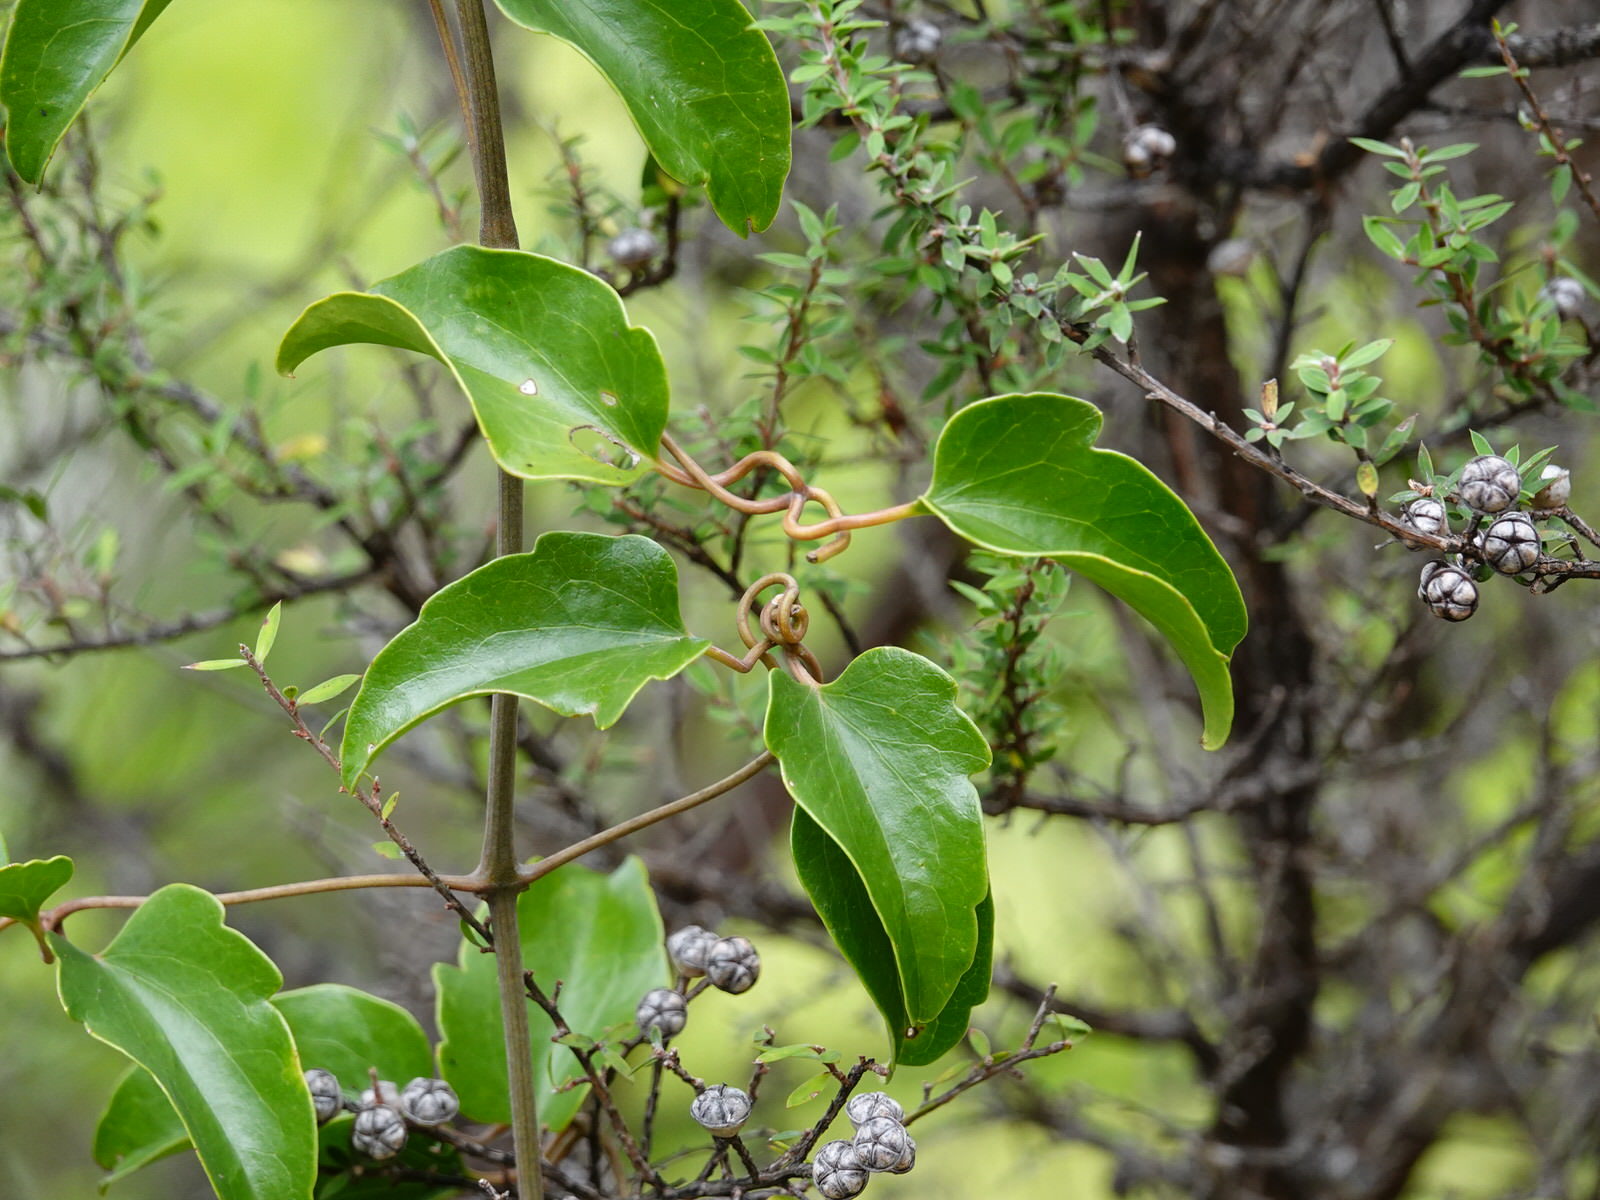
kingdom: Plantae
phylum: Tracheophyta
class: Magnoliopsida
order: Ranunculales
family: Ranunculaceae
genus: Clematis
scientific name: Clematis paniculata
